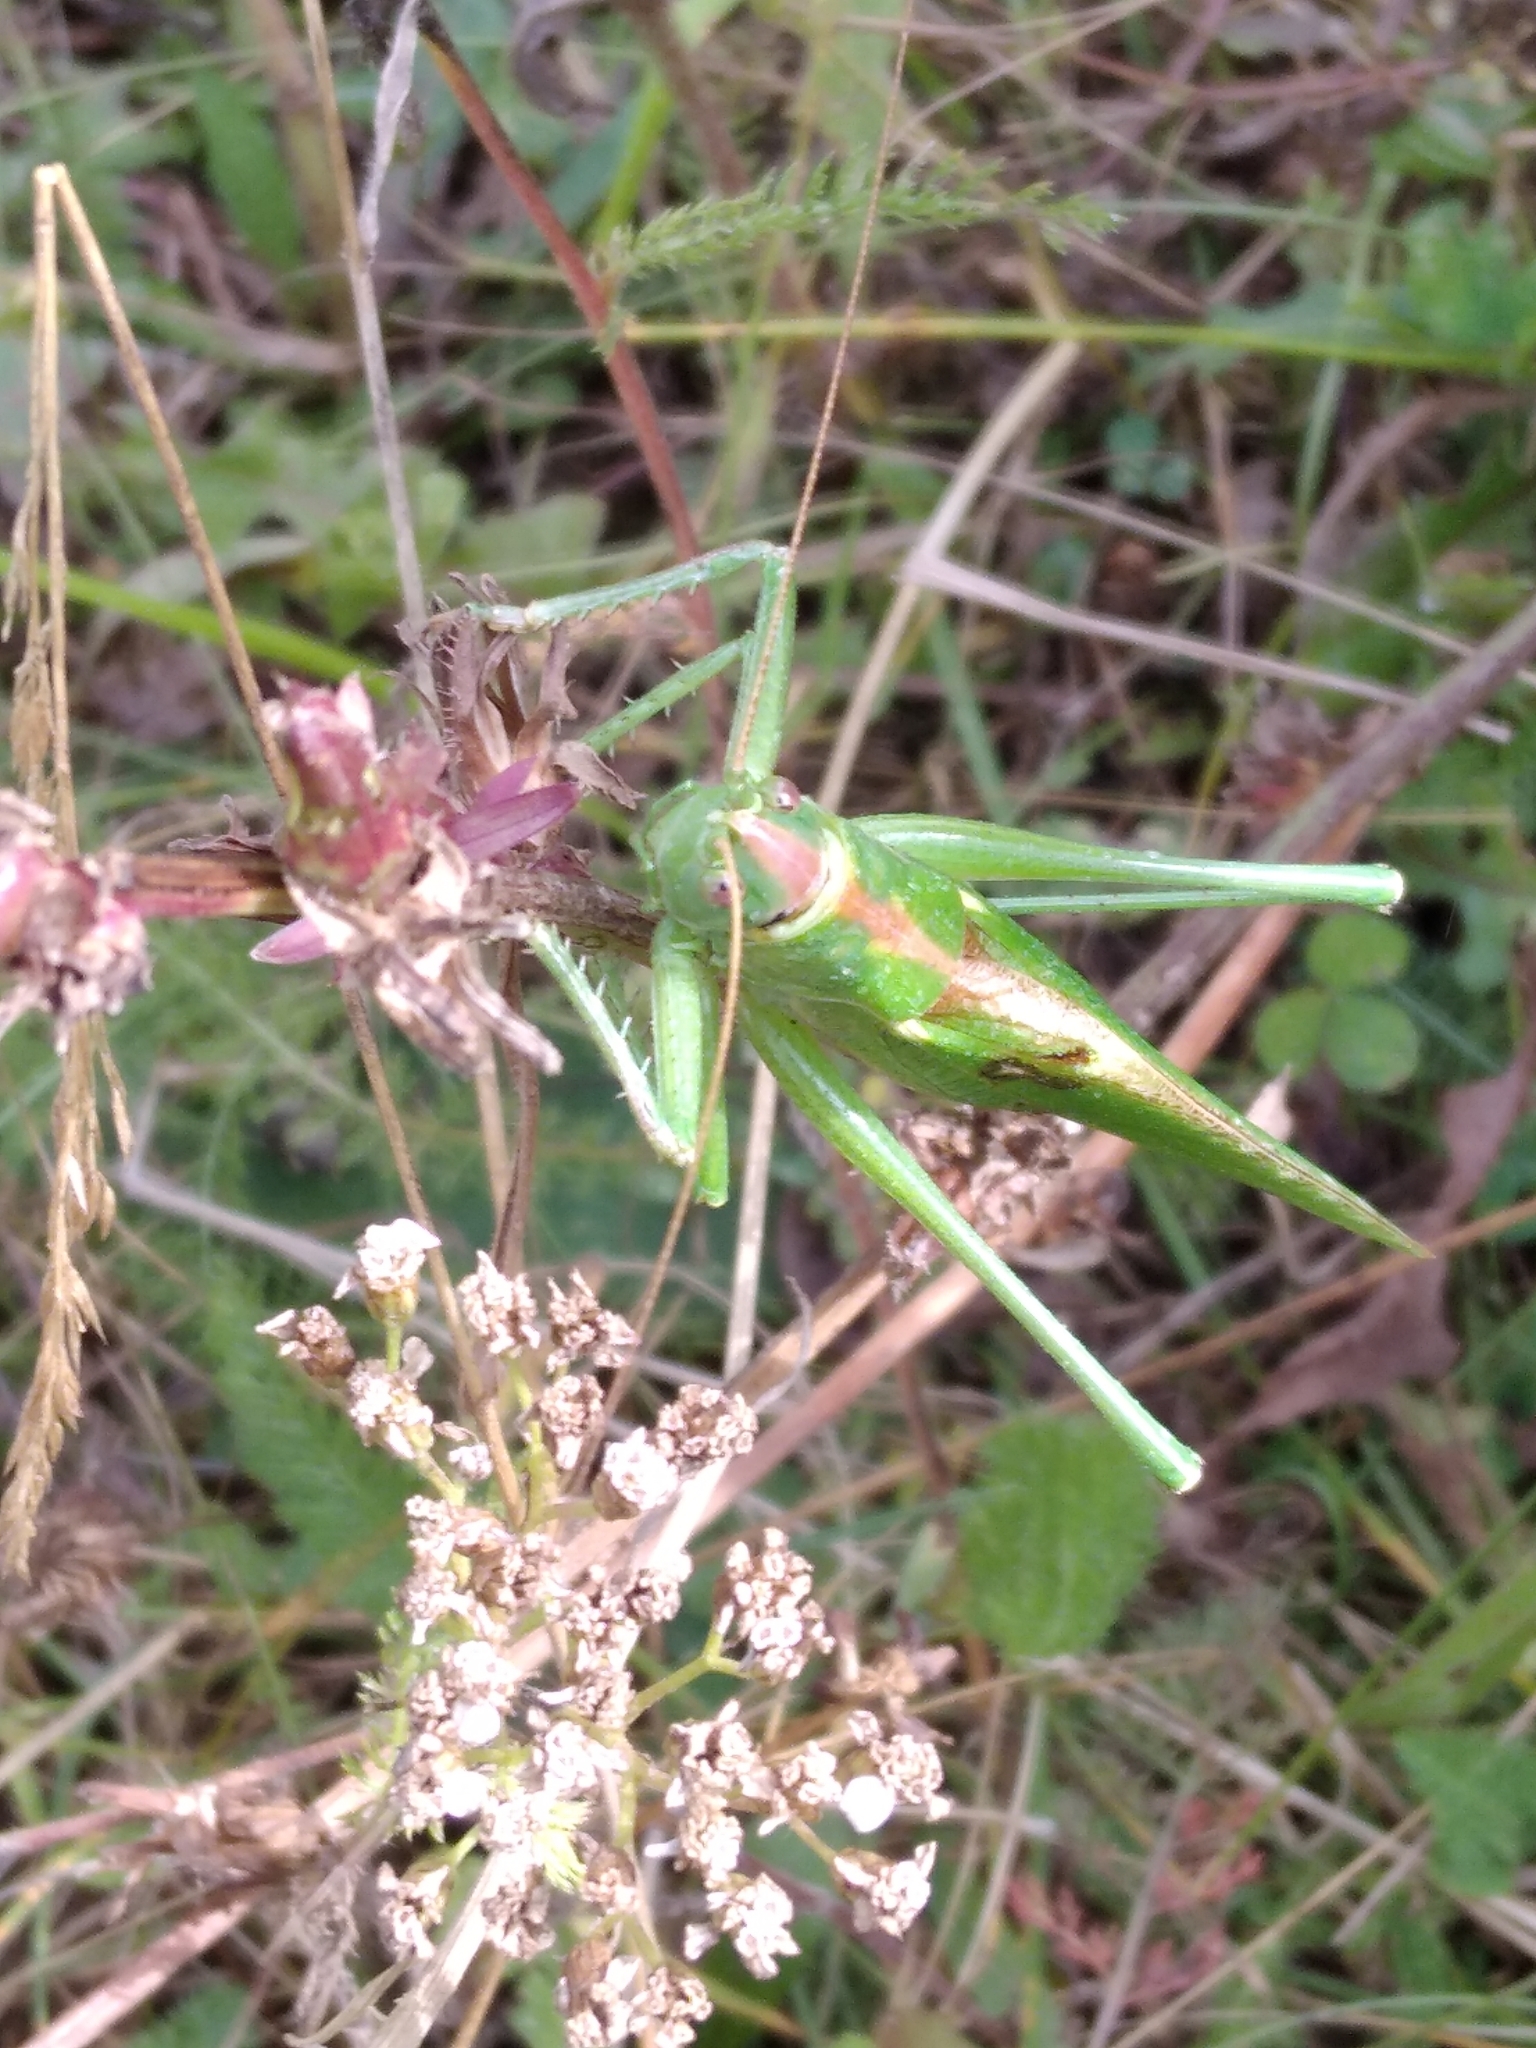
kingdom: Animalia
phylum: Arthropoda
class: Insecta
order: Orthoptera
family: Tettigoniidae
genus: Tettigonia
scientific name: Tettigonia viridissima
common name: Great green bush-cricket
